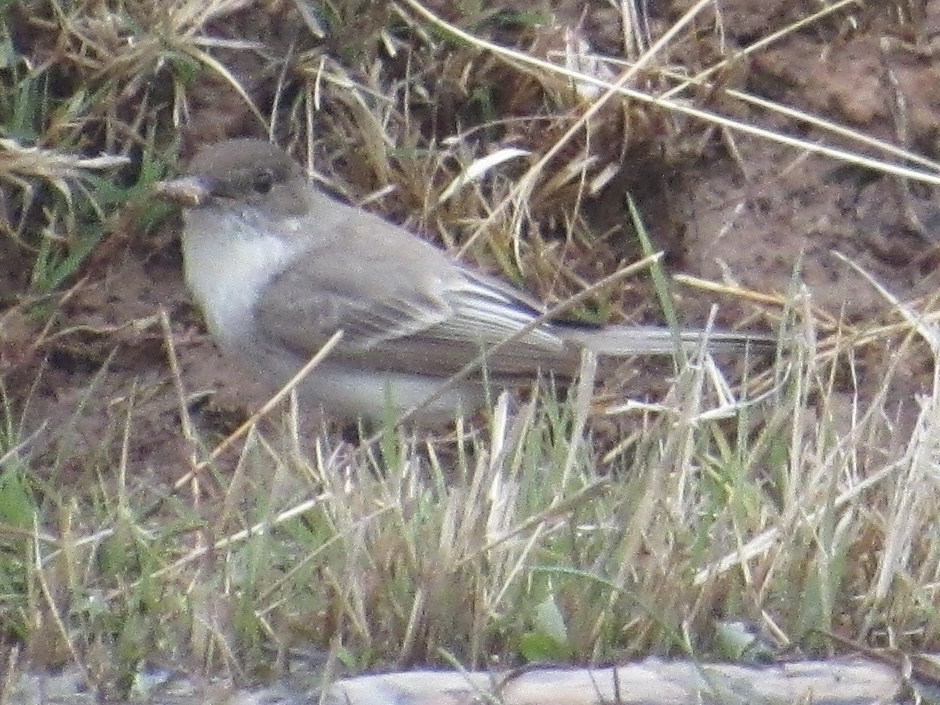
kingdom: Animalia
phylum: Chordata
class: Aves
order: Passeriformes
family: Tyrannidae
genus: Sayornis
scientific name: Sayornis phoebe
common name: Eastern phoebe
